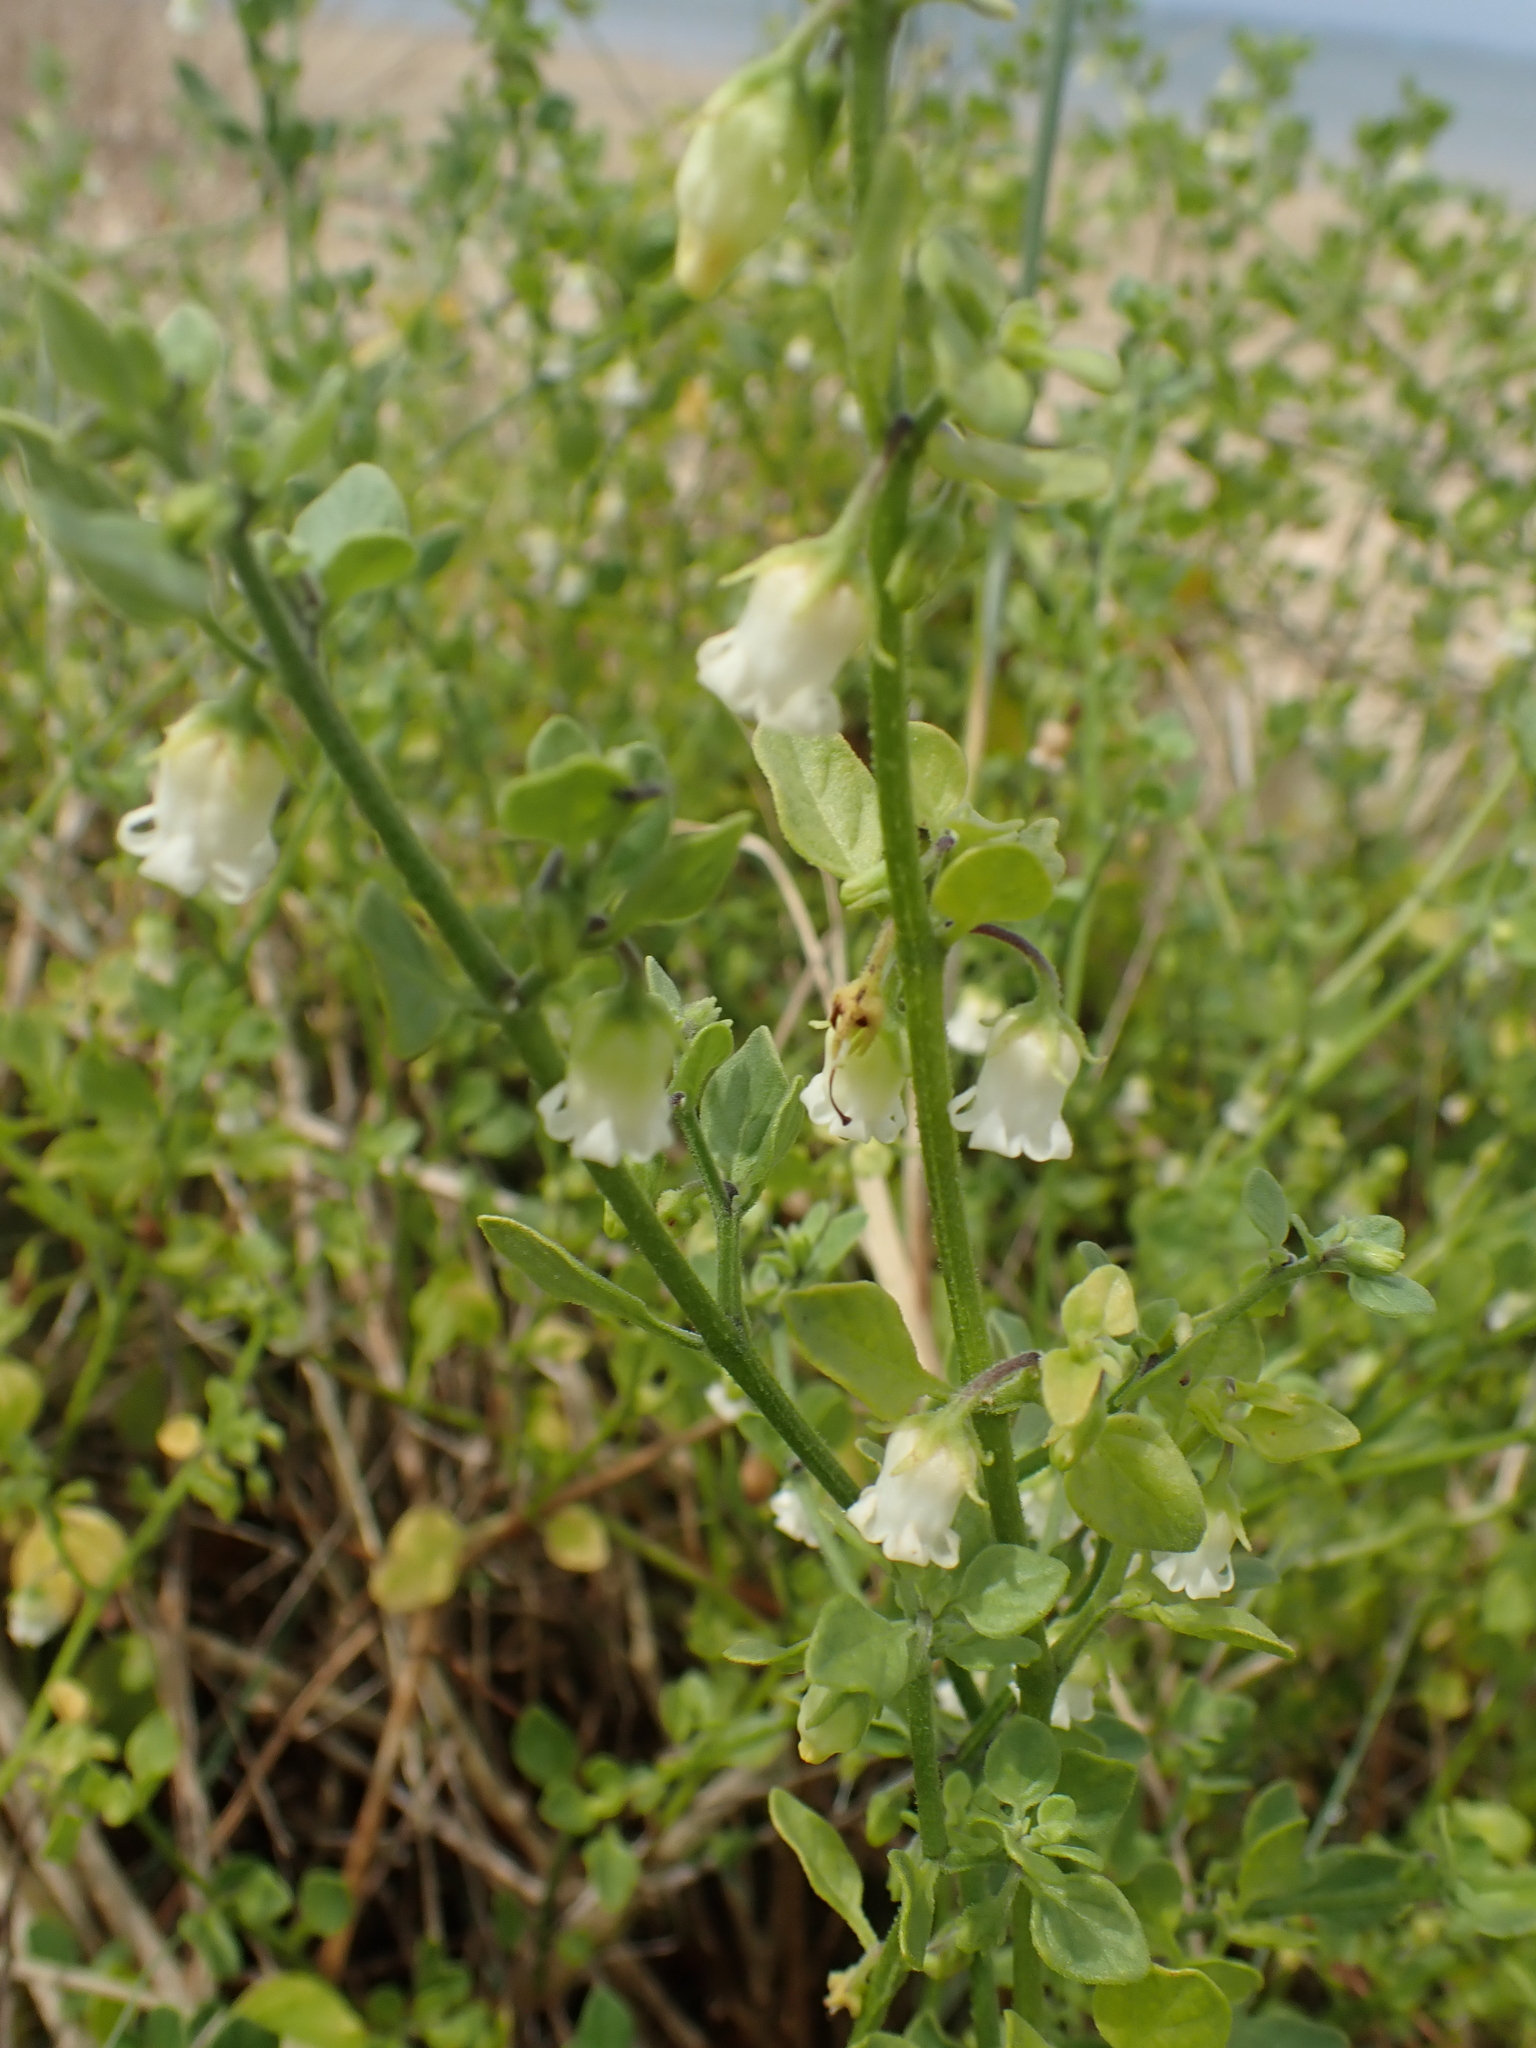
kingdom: Plantae
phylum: Tracheophyta
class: Magnoliopsida
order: Solanales
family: Solanaceae
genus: Salpichroa
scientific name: Salpichroa origanifolia
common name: Lily-of-the-valley-vine
